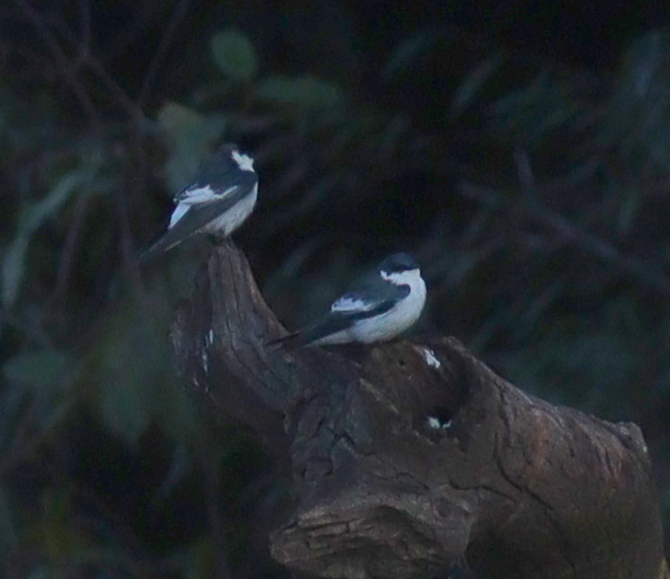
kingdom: Animalia
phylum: Chordata
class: Aves
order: Passeriformes
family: Hirundinidae
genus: Tachycineta
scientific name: Tachycineta albiventer
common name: White-winged swallow
